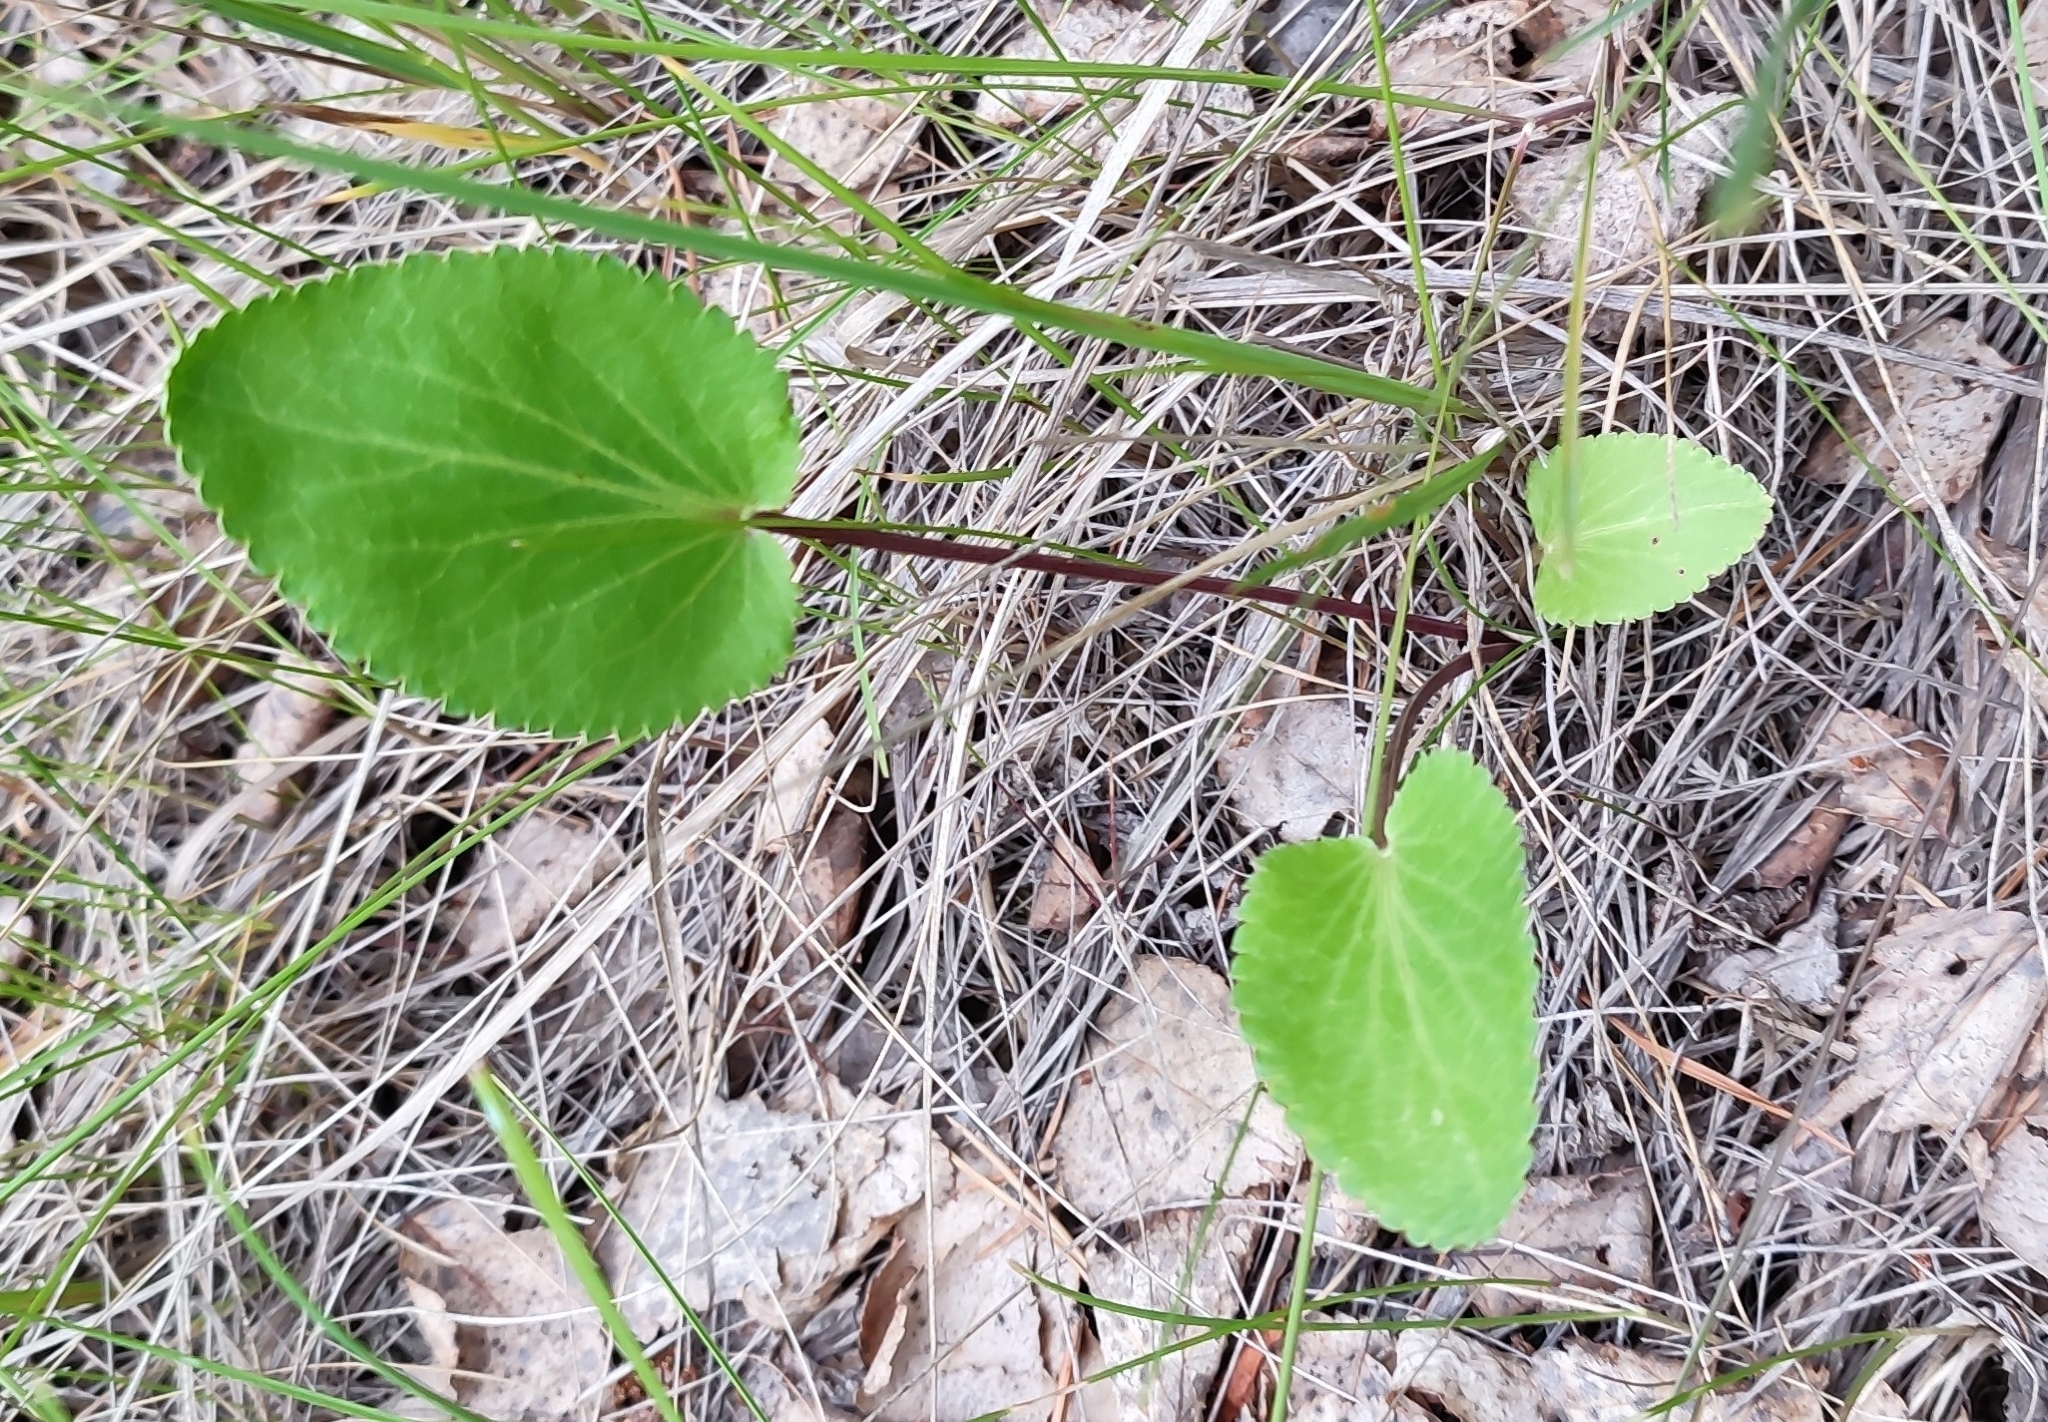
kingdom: Plantae
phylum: Tracheophyta
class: Magnoliopsida
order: Apiales
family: Apiaceae
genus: Eryngium
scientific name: Eryngium planum
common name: Blue eryngo
